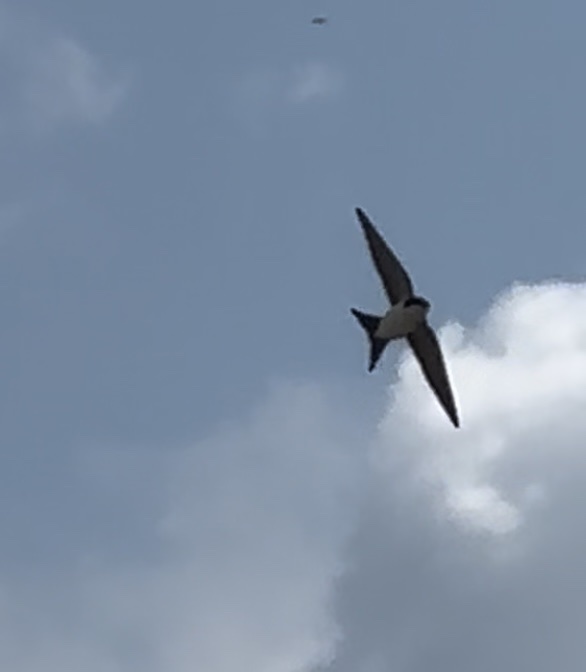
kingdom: Animalia
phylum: Chordata
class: Aves
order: Passeriformes
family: Hirundinidae
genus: Delichon
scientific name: Delichon urbicum
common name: Common house martin
